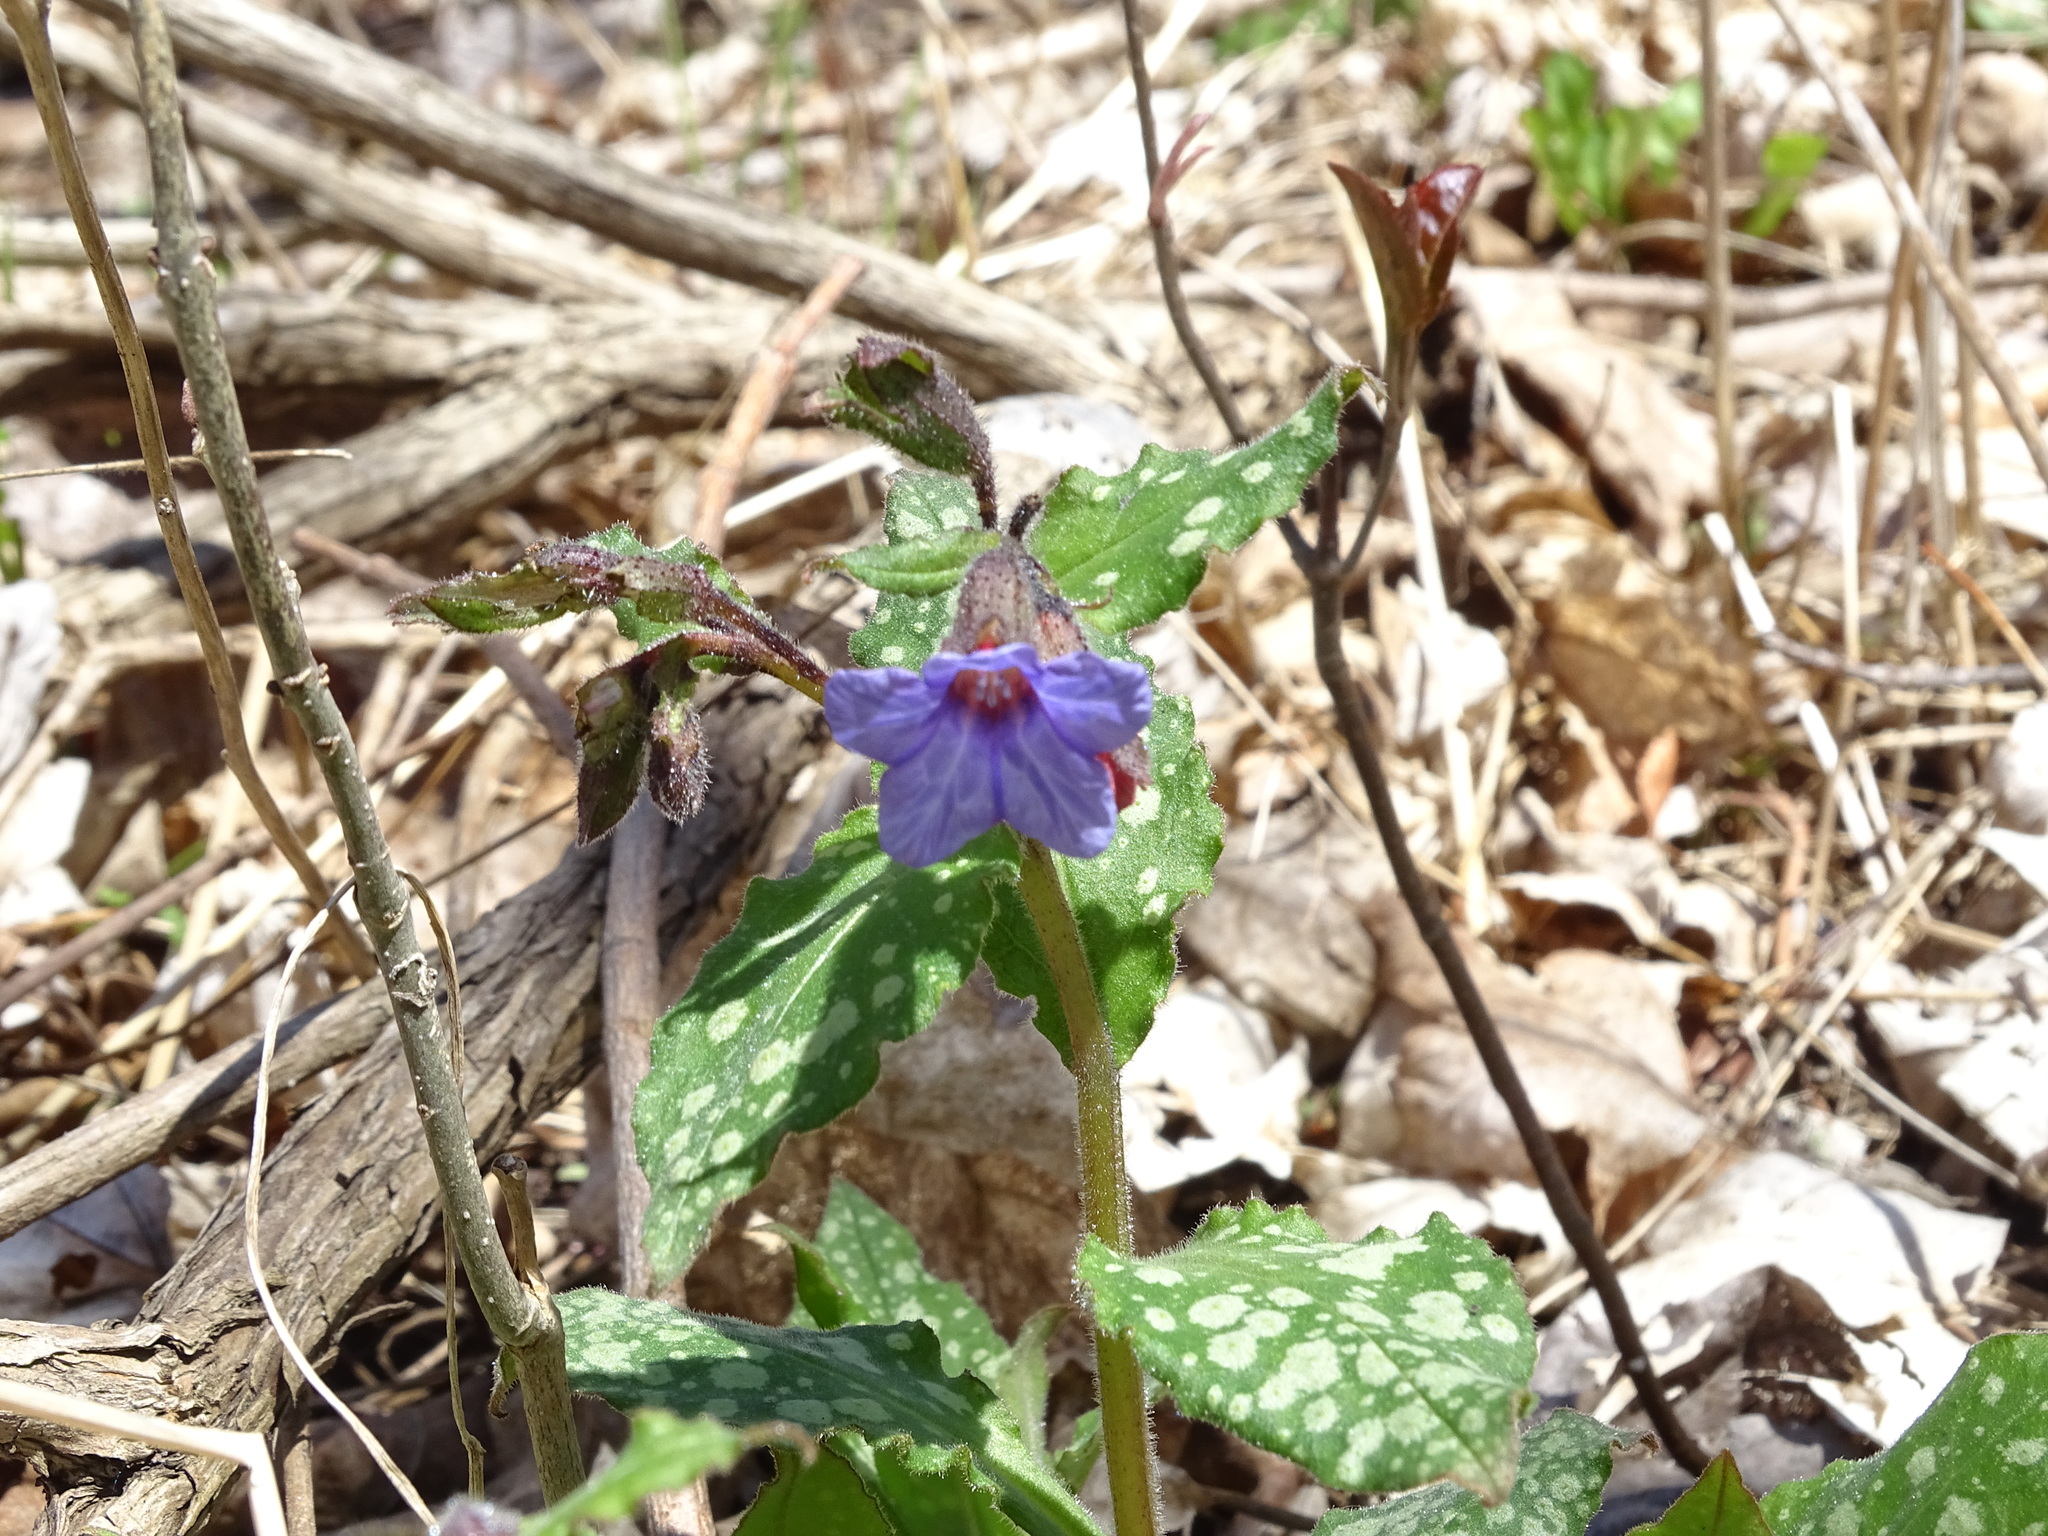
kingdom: Plantae
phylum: Tracheophyta
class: Magnoliopsida
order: Boraginales
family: Boraginaceae
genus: Pulmonaria
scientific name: Pulmonaria officinalis
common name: Lungwort
